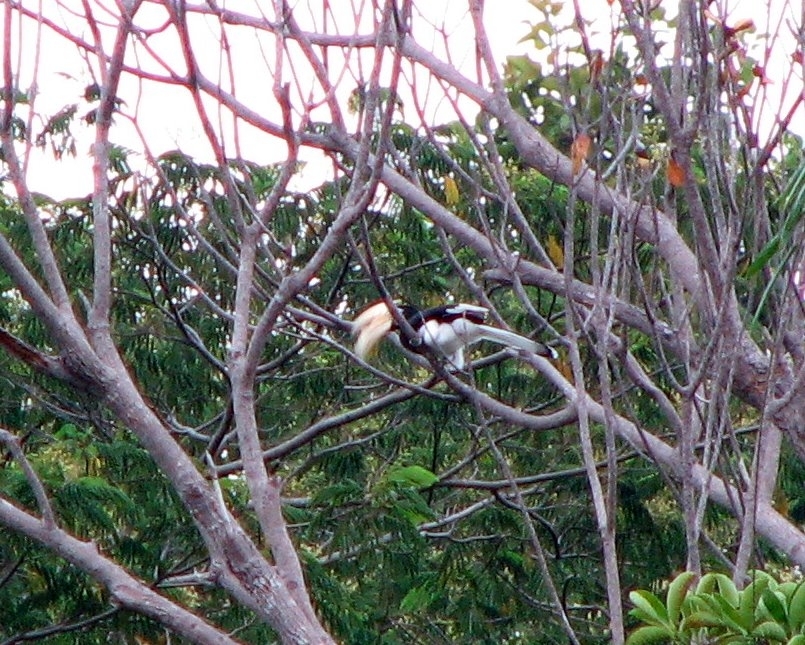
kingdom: Animalia
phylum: Chordata
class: Aves
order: Bucerotiformes
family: Bucerotidae
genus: Anthracoceros
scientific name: Anthracoceros albirostris
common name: Oriental pied-hornbill
